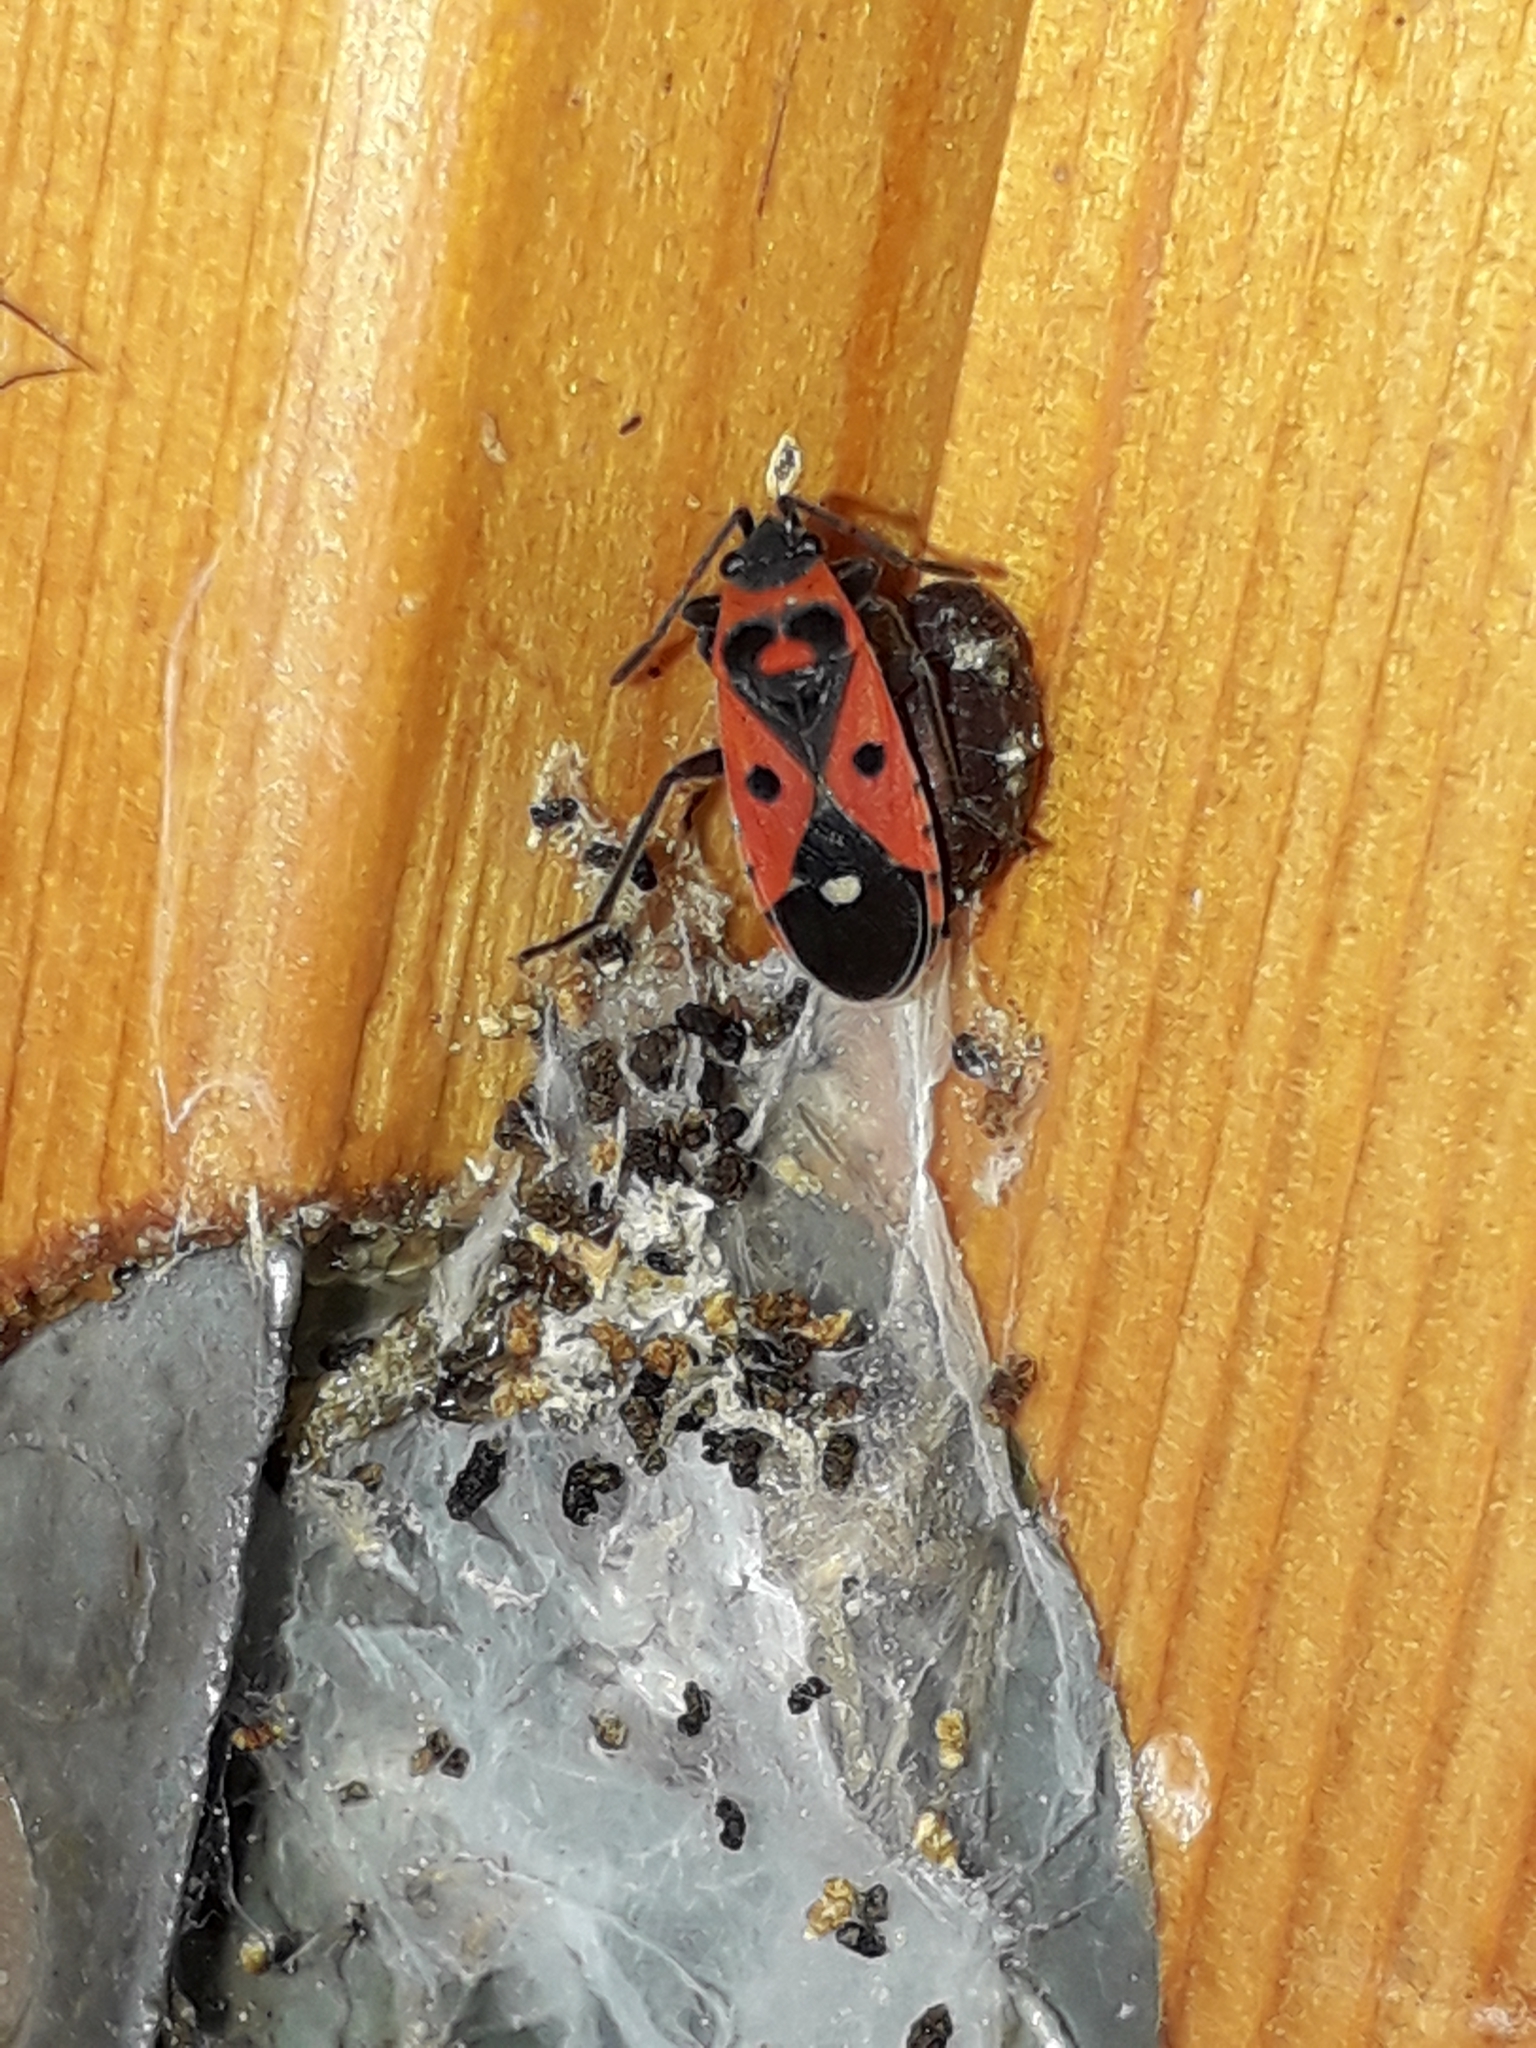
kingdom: Animalia
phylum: Arthropoda
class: Insecta
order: Hemiptera
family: Lygaeidae
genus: Melanocoryphus
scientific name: Melanocoryphus albomaculatus
